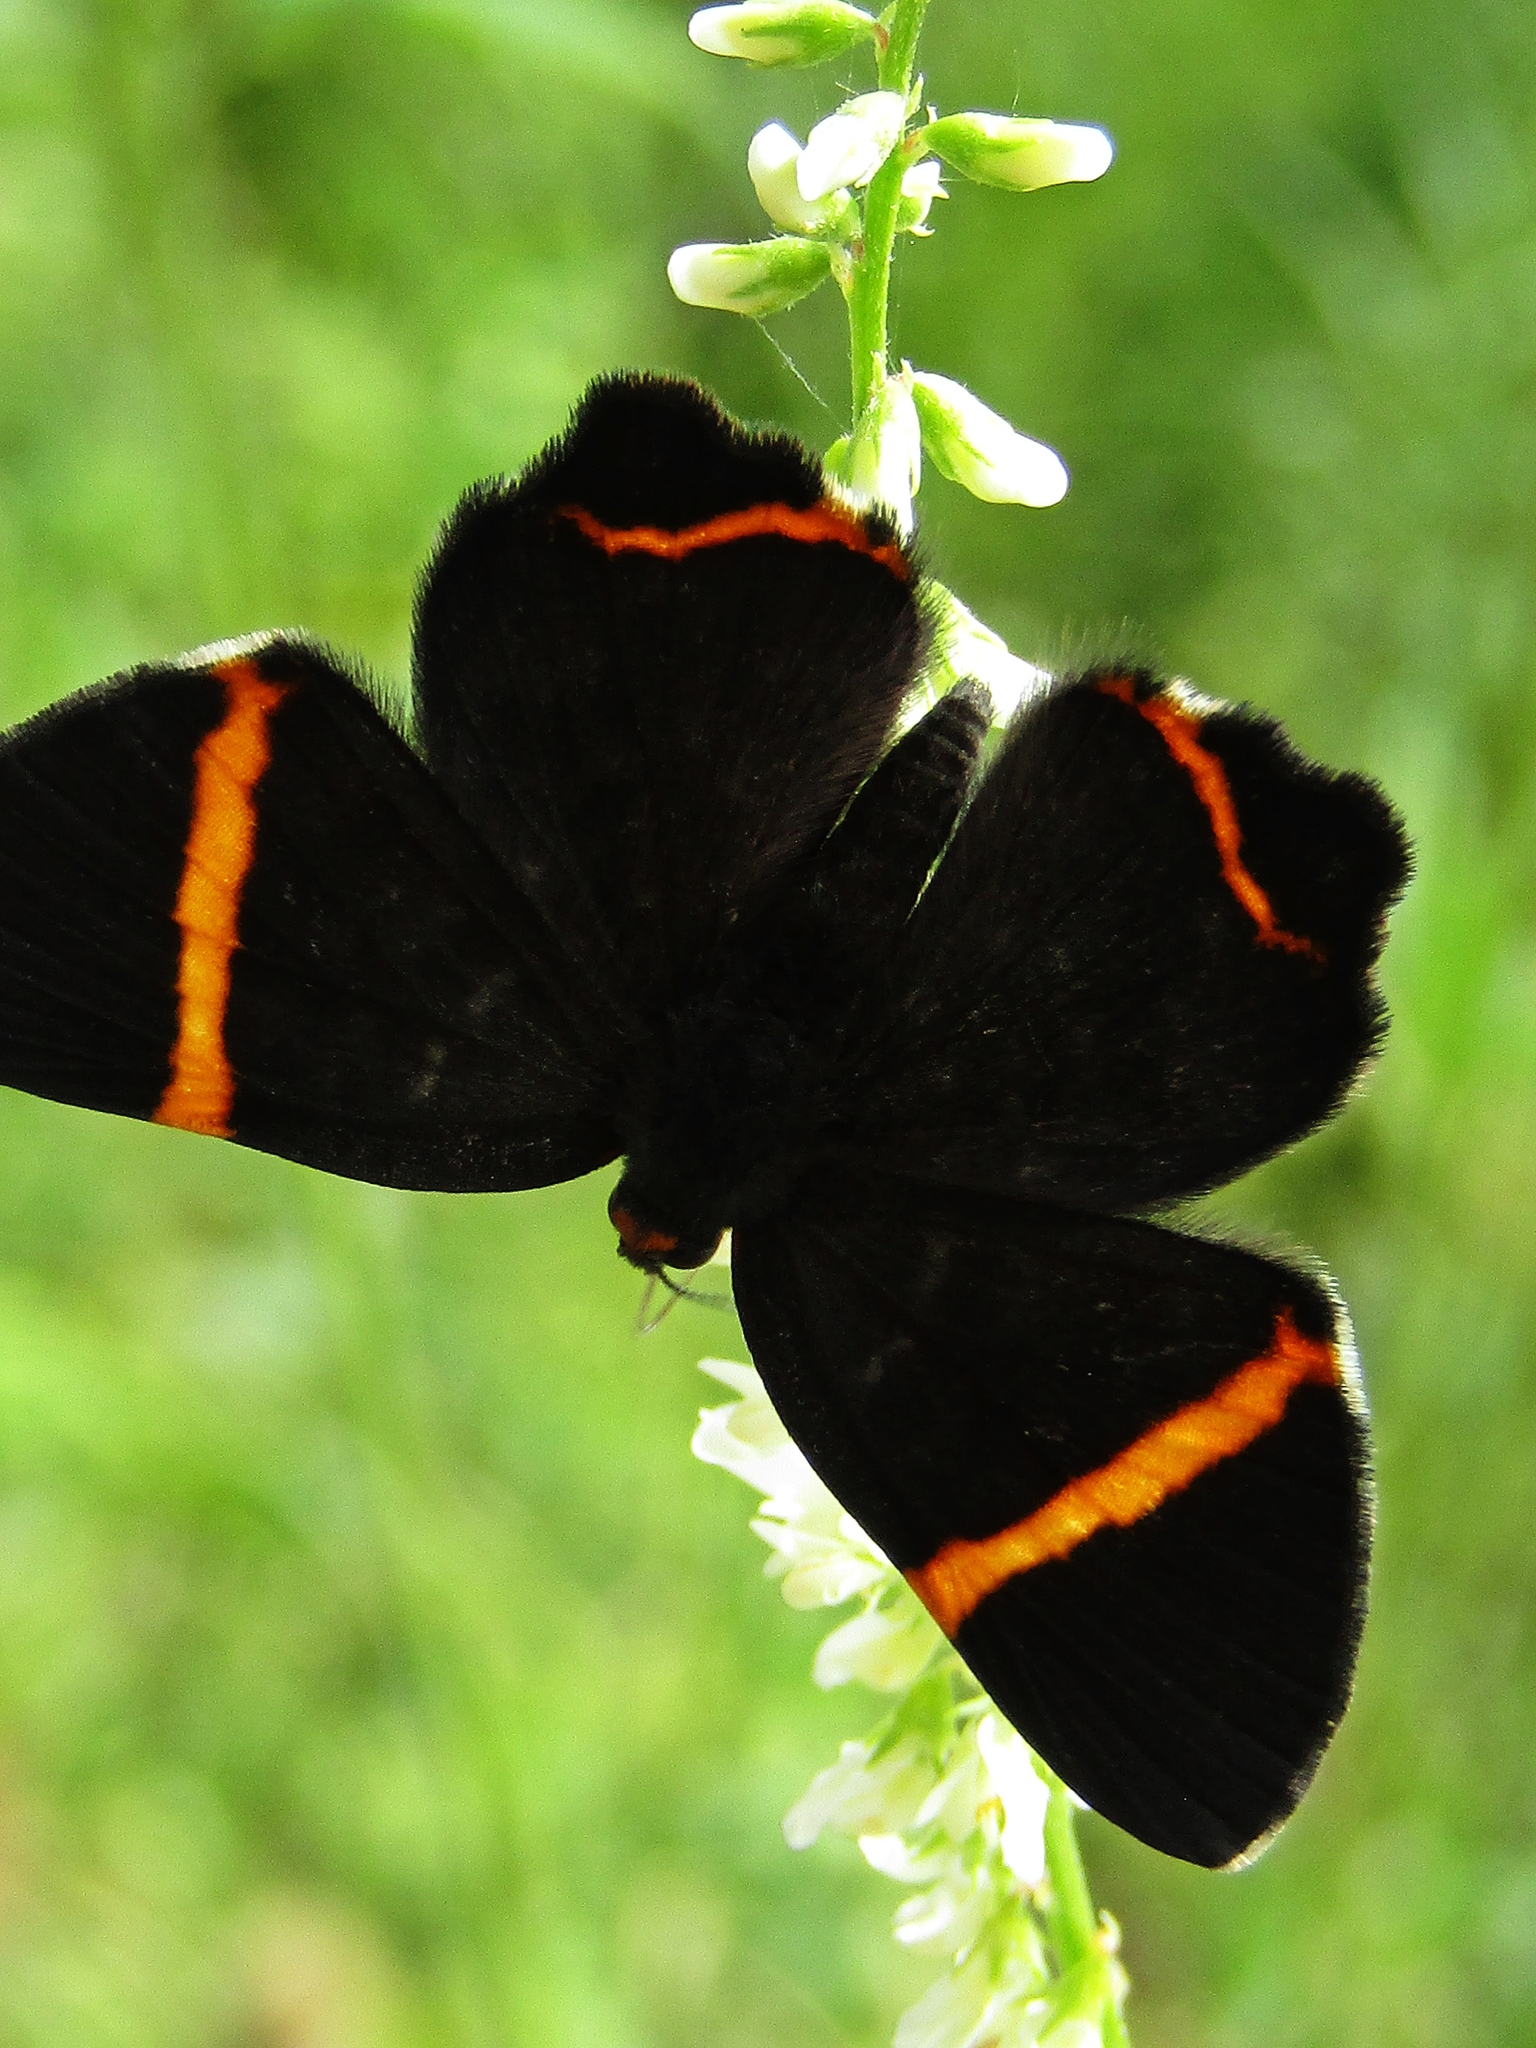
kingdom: Animalia
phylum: Arthropoda
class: Insecta
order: Lepidoptera
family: Riodinidae
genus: Riodina
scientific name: Riodina lysippoides
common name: Little dancer metalmark
